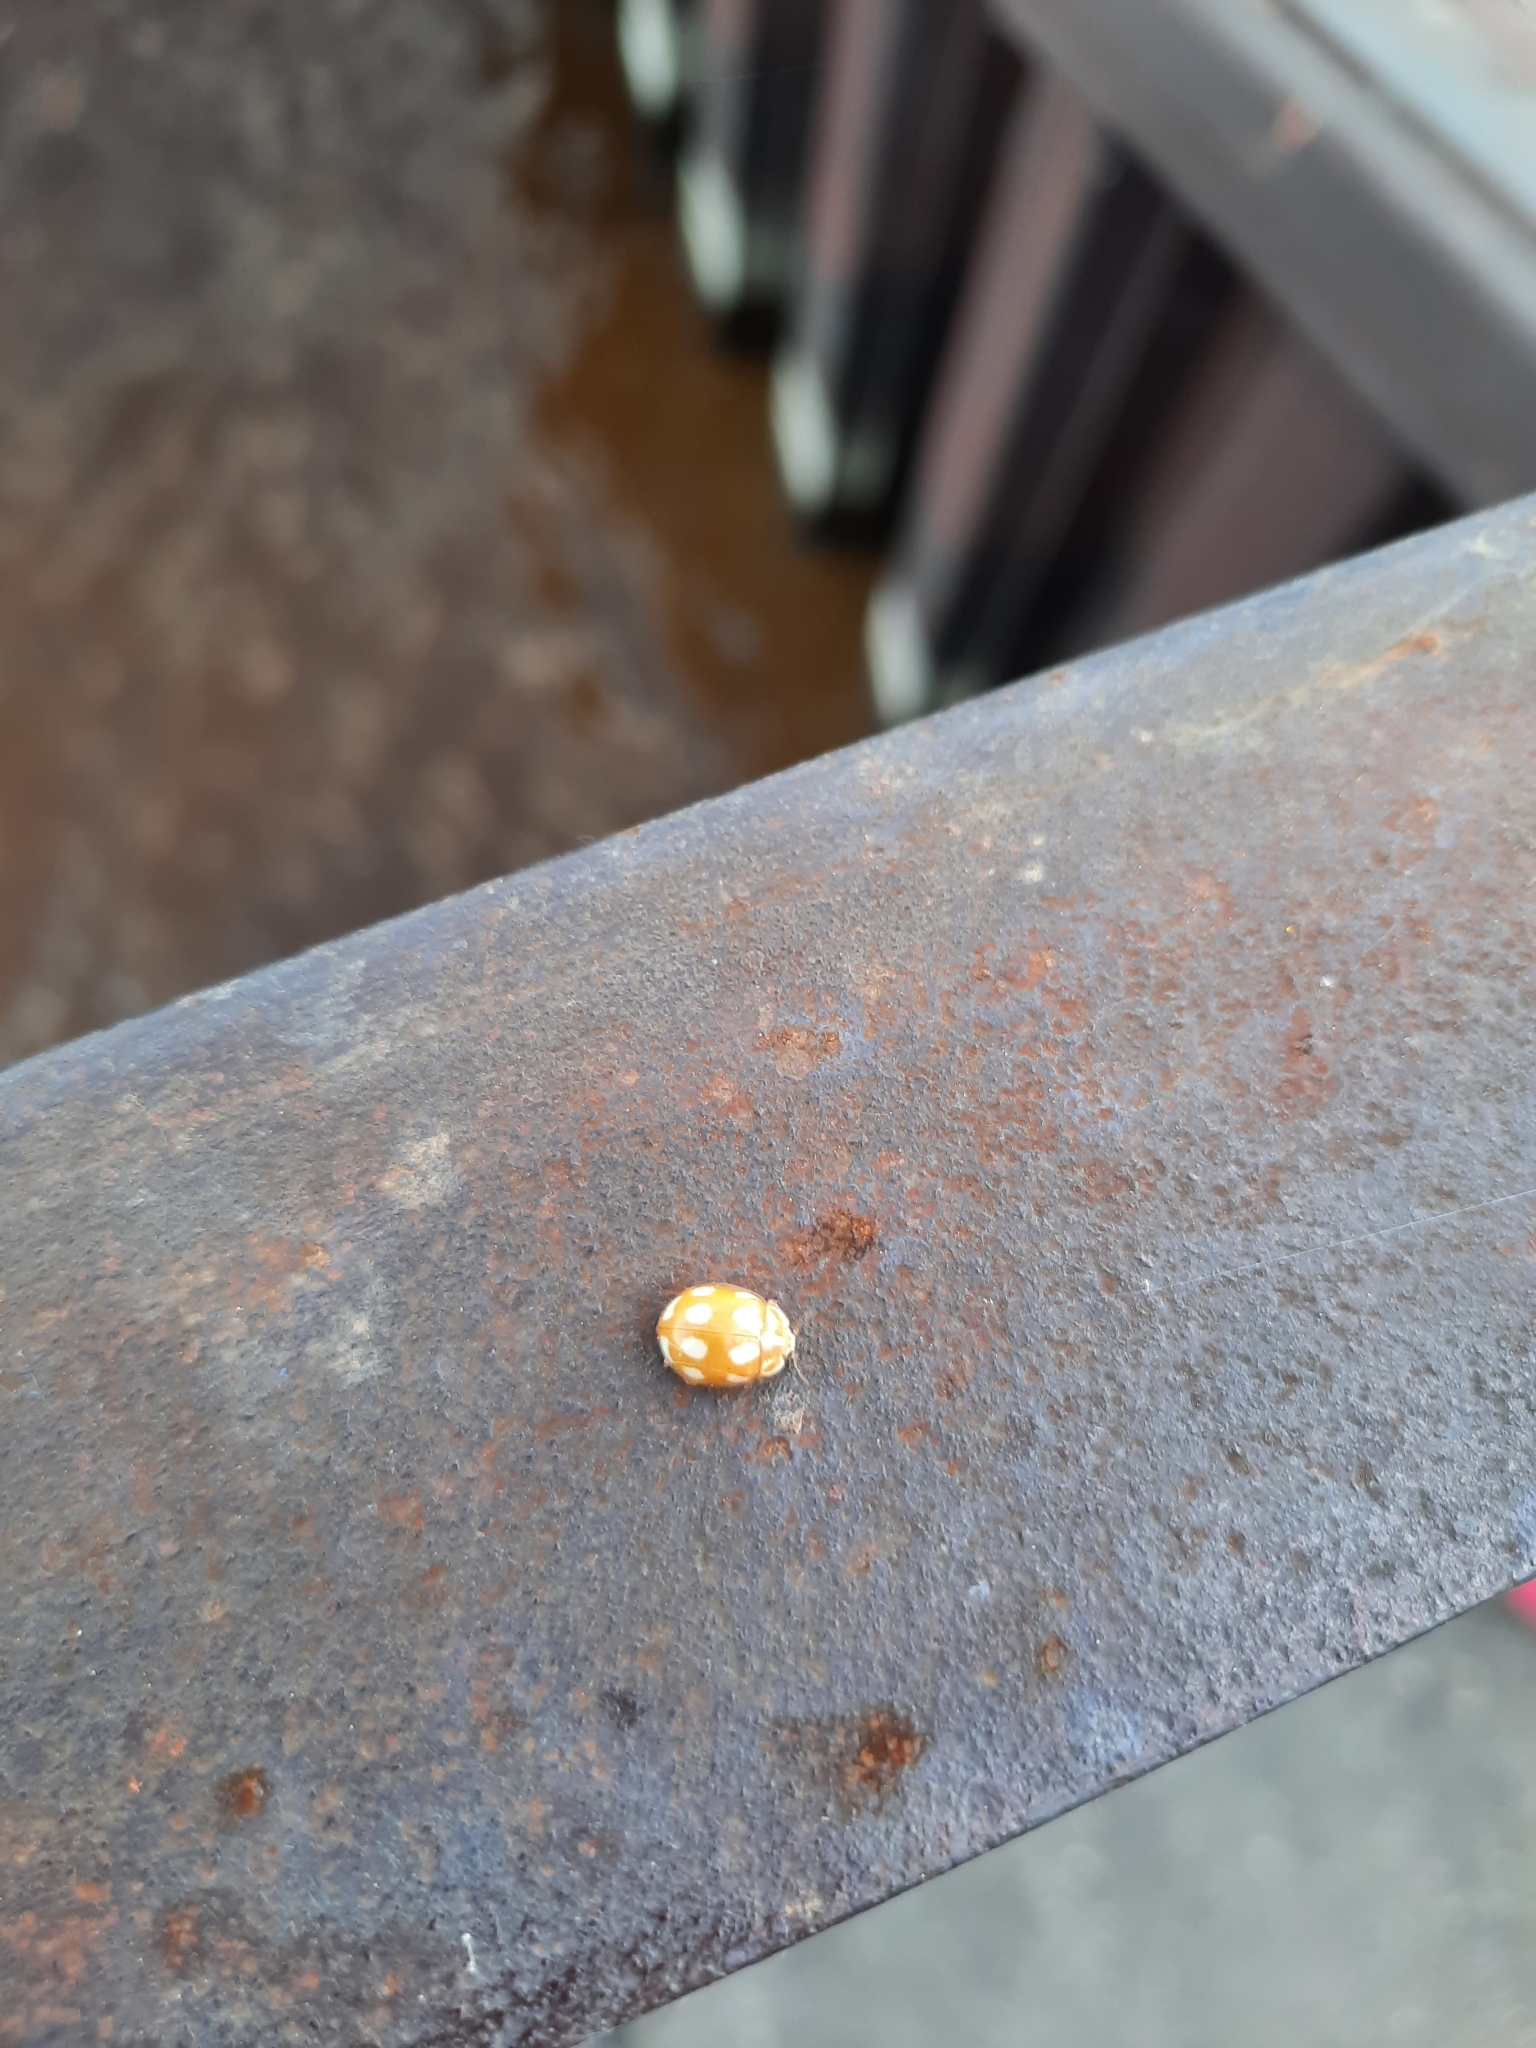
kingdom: Animalia
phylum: Arthropoda
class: Insecta
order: Coleoptera
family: Coccinellidae
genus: Calvia
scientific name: Calvia decemguttata
